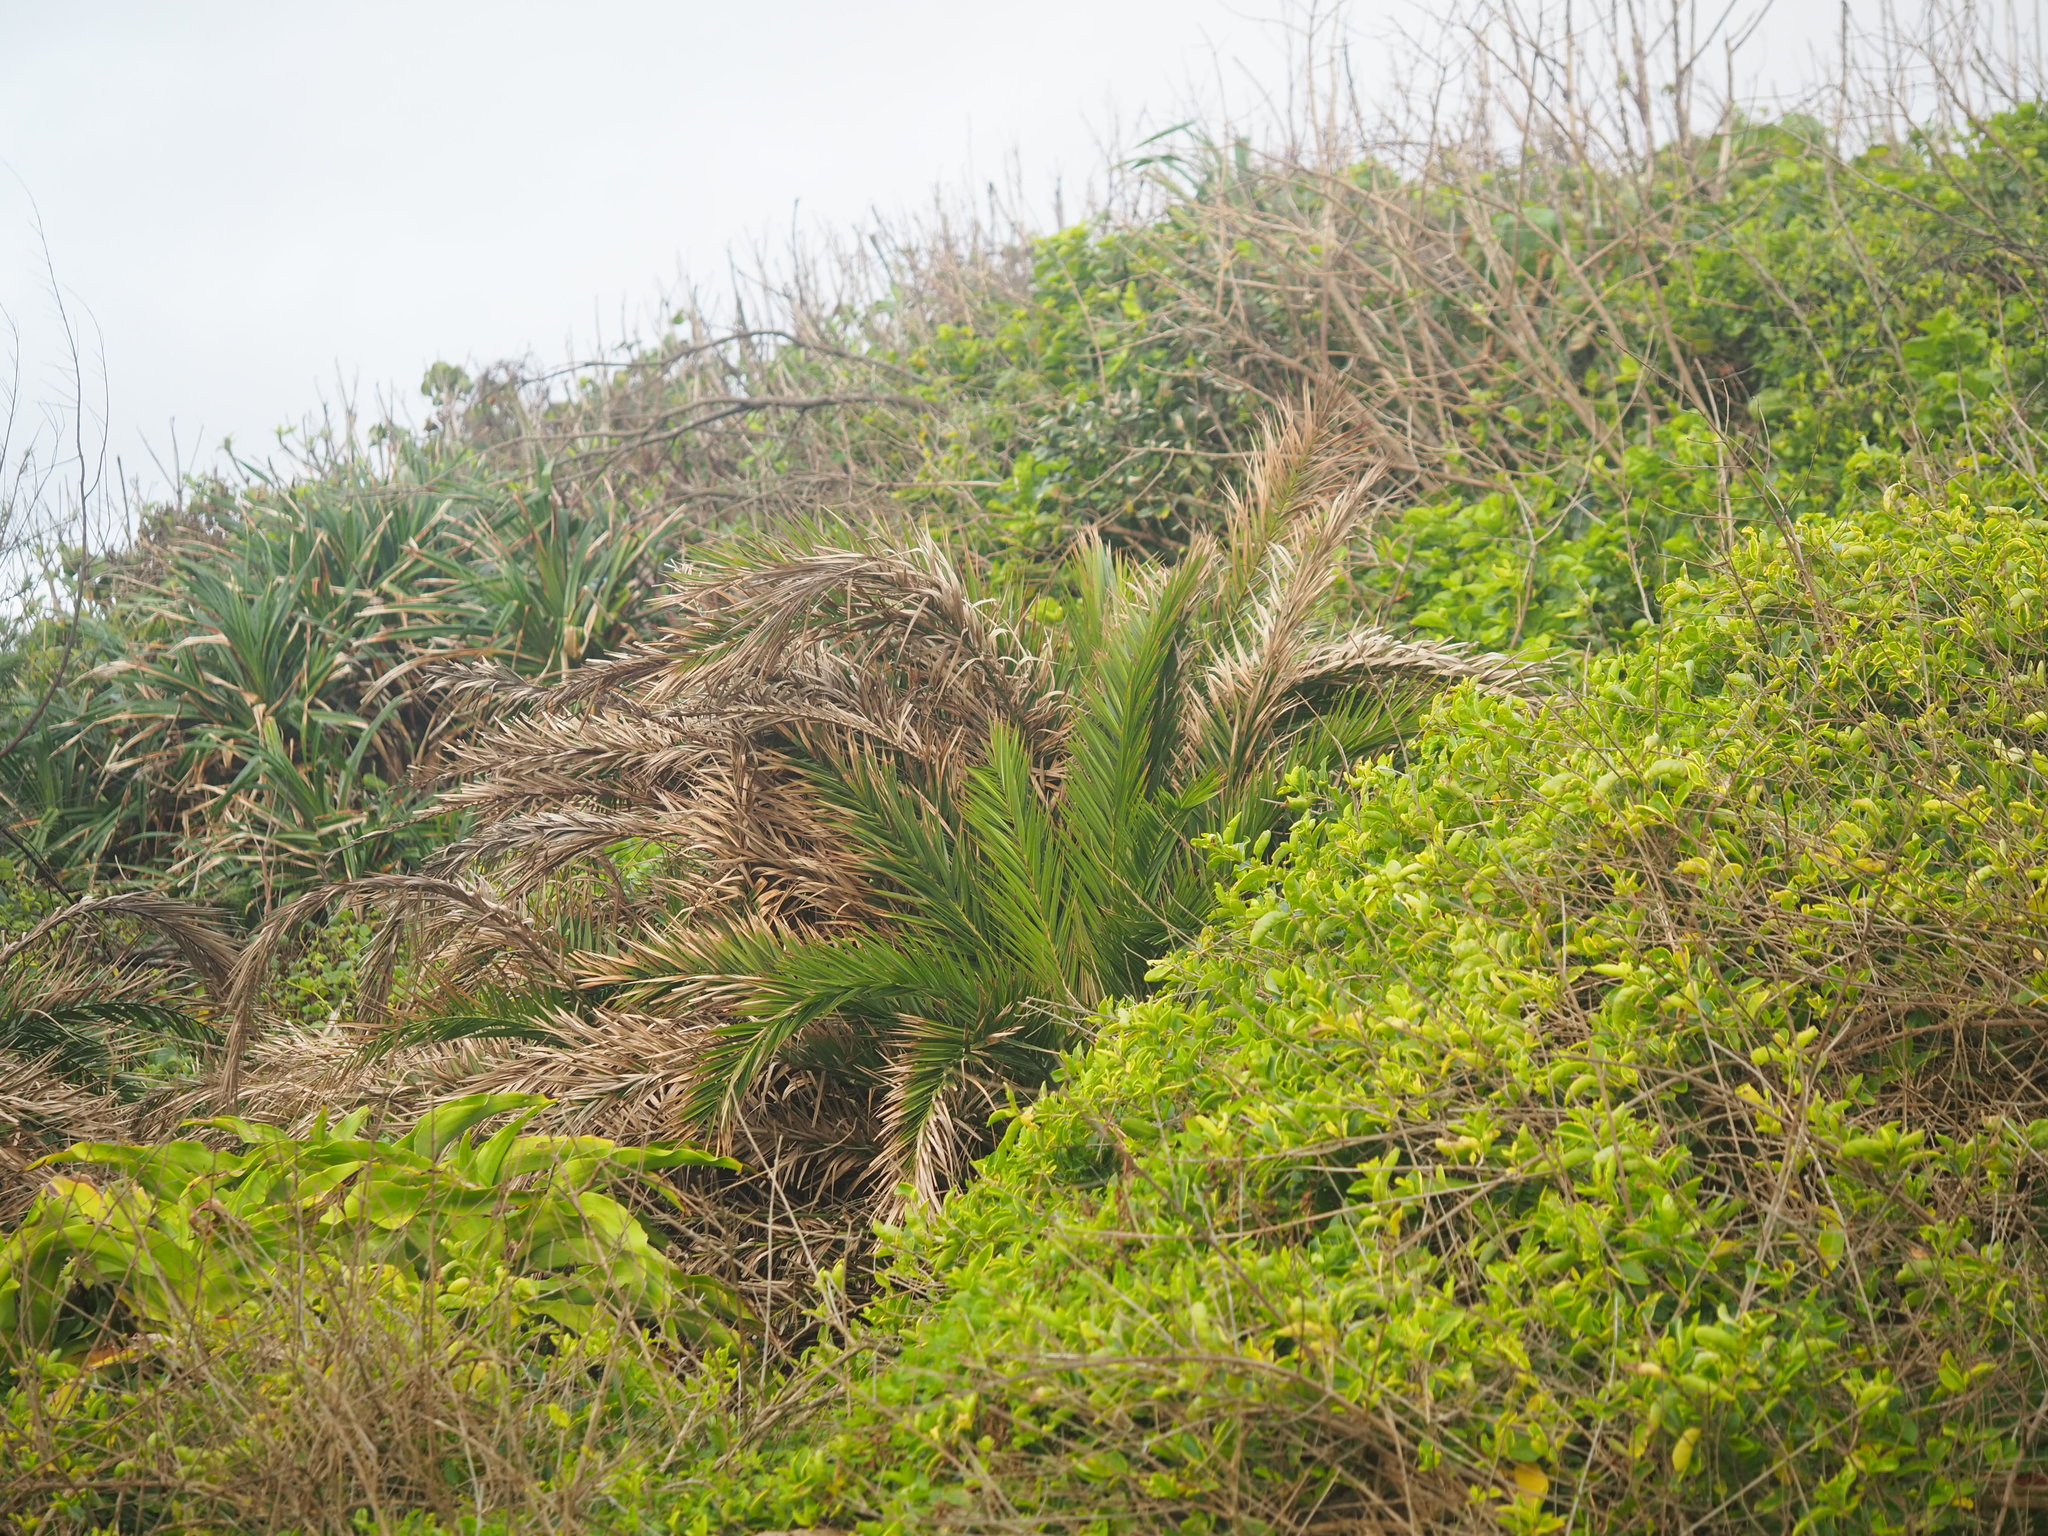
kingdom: Plantae
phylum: Tracheophyta
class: Liliopsida
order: Arecales
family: Arecaceae
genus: Phoenix
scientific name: Phoenix loureiroi
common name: Loureiro's palm
